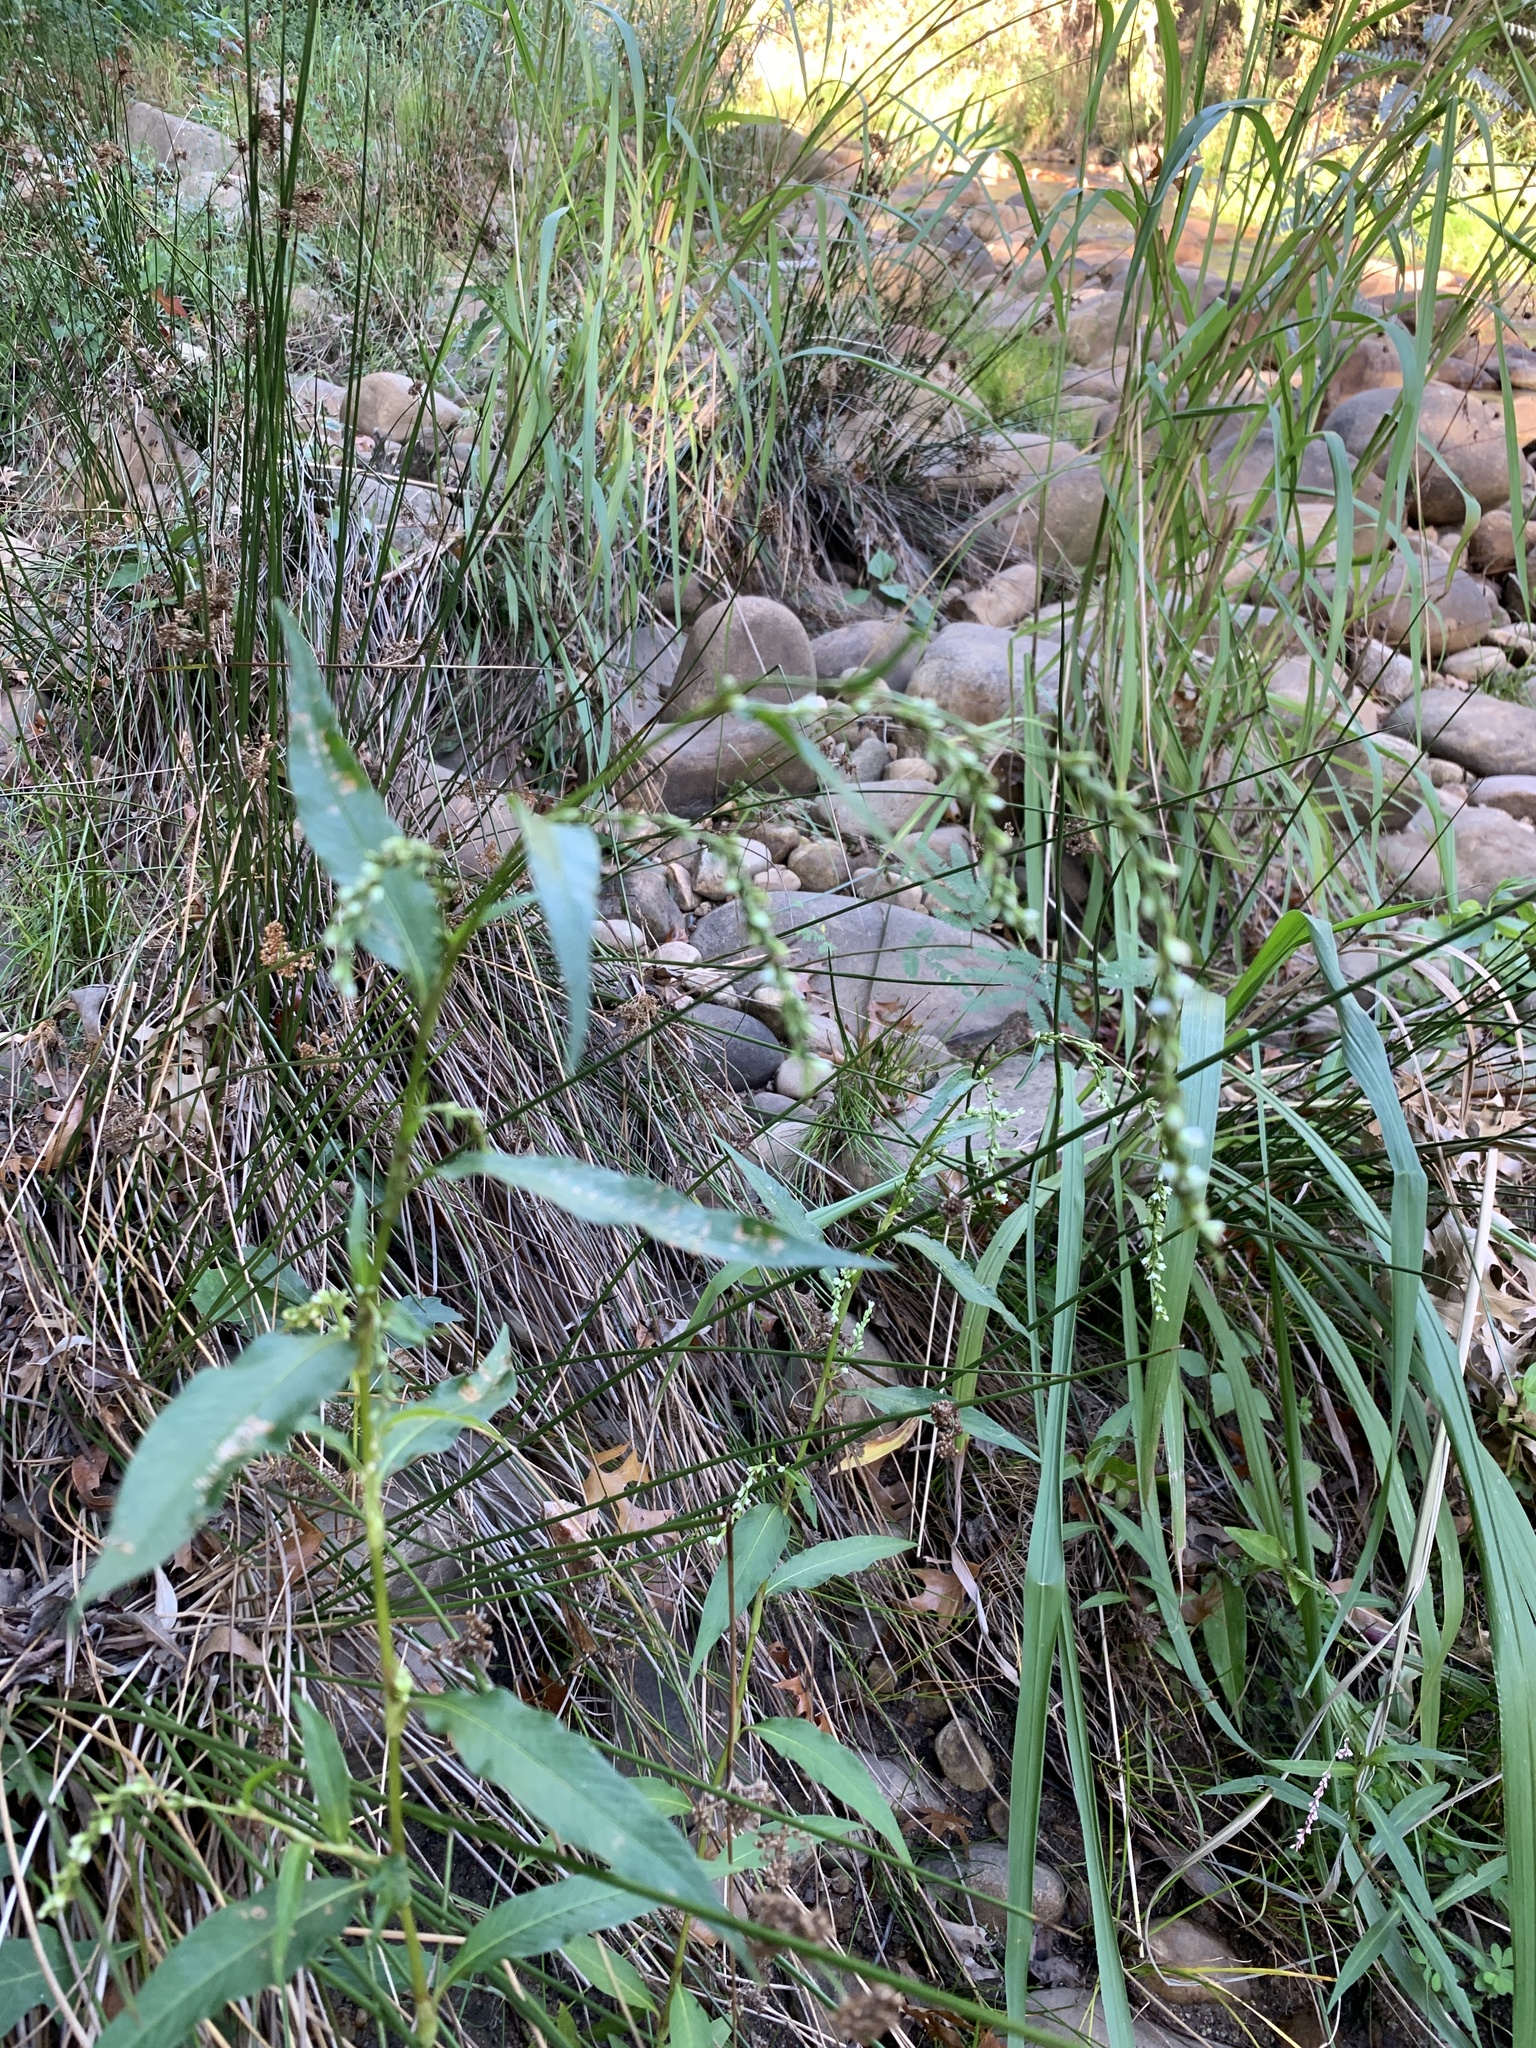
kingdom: Plantae
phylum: Tracheophyta
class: Magnoliopsida
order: Caryophyllales
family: Polygonaceae
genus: Persicaria
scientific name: Persicaria hydropiper
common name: Water-pepper
